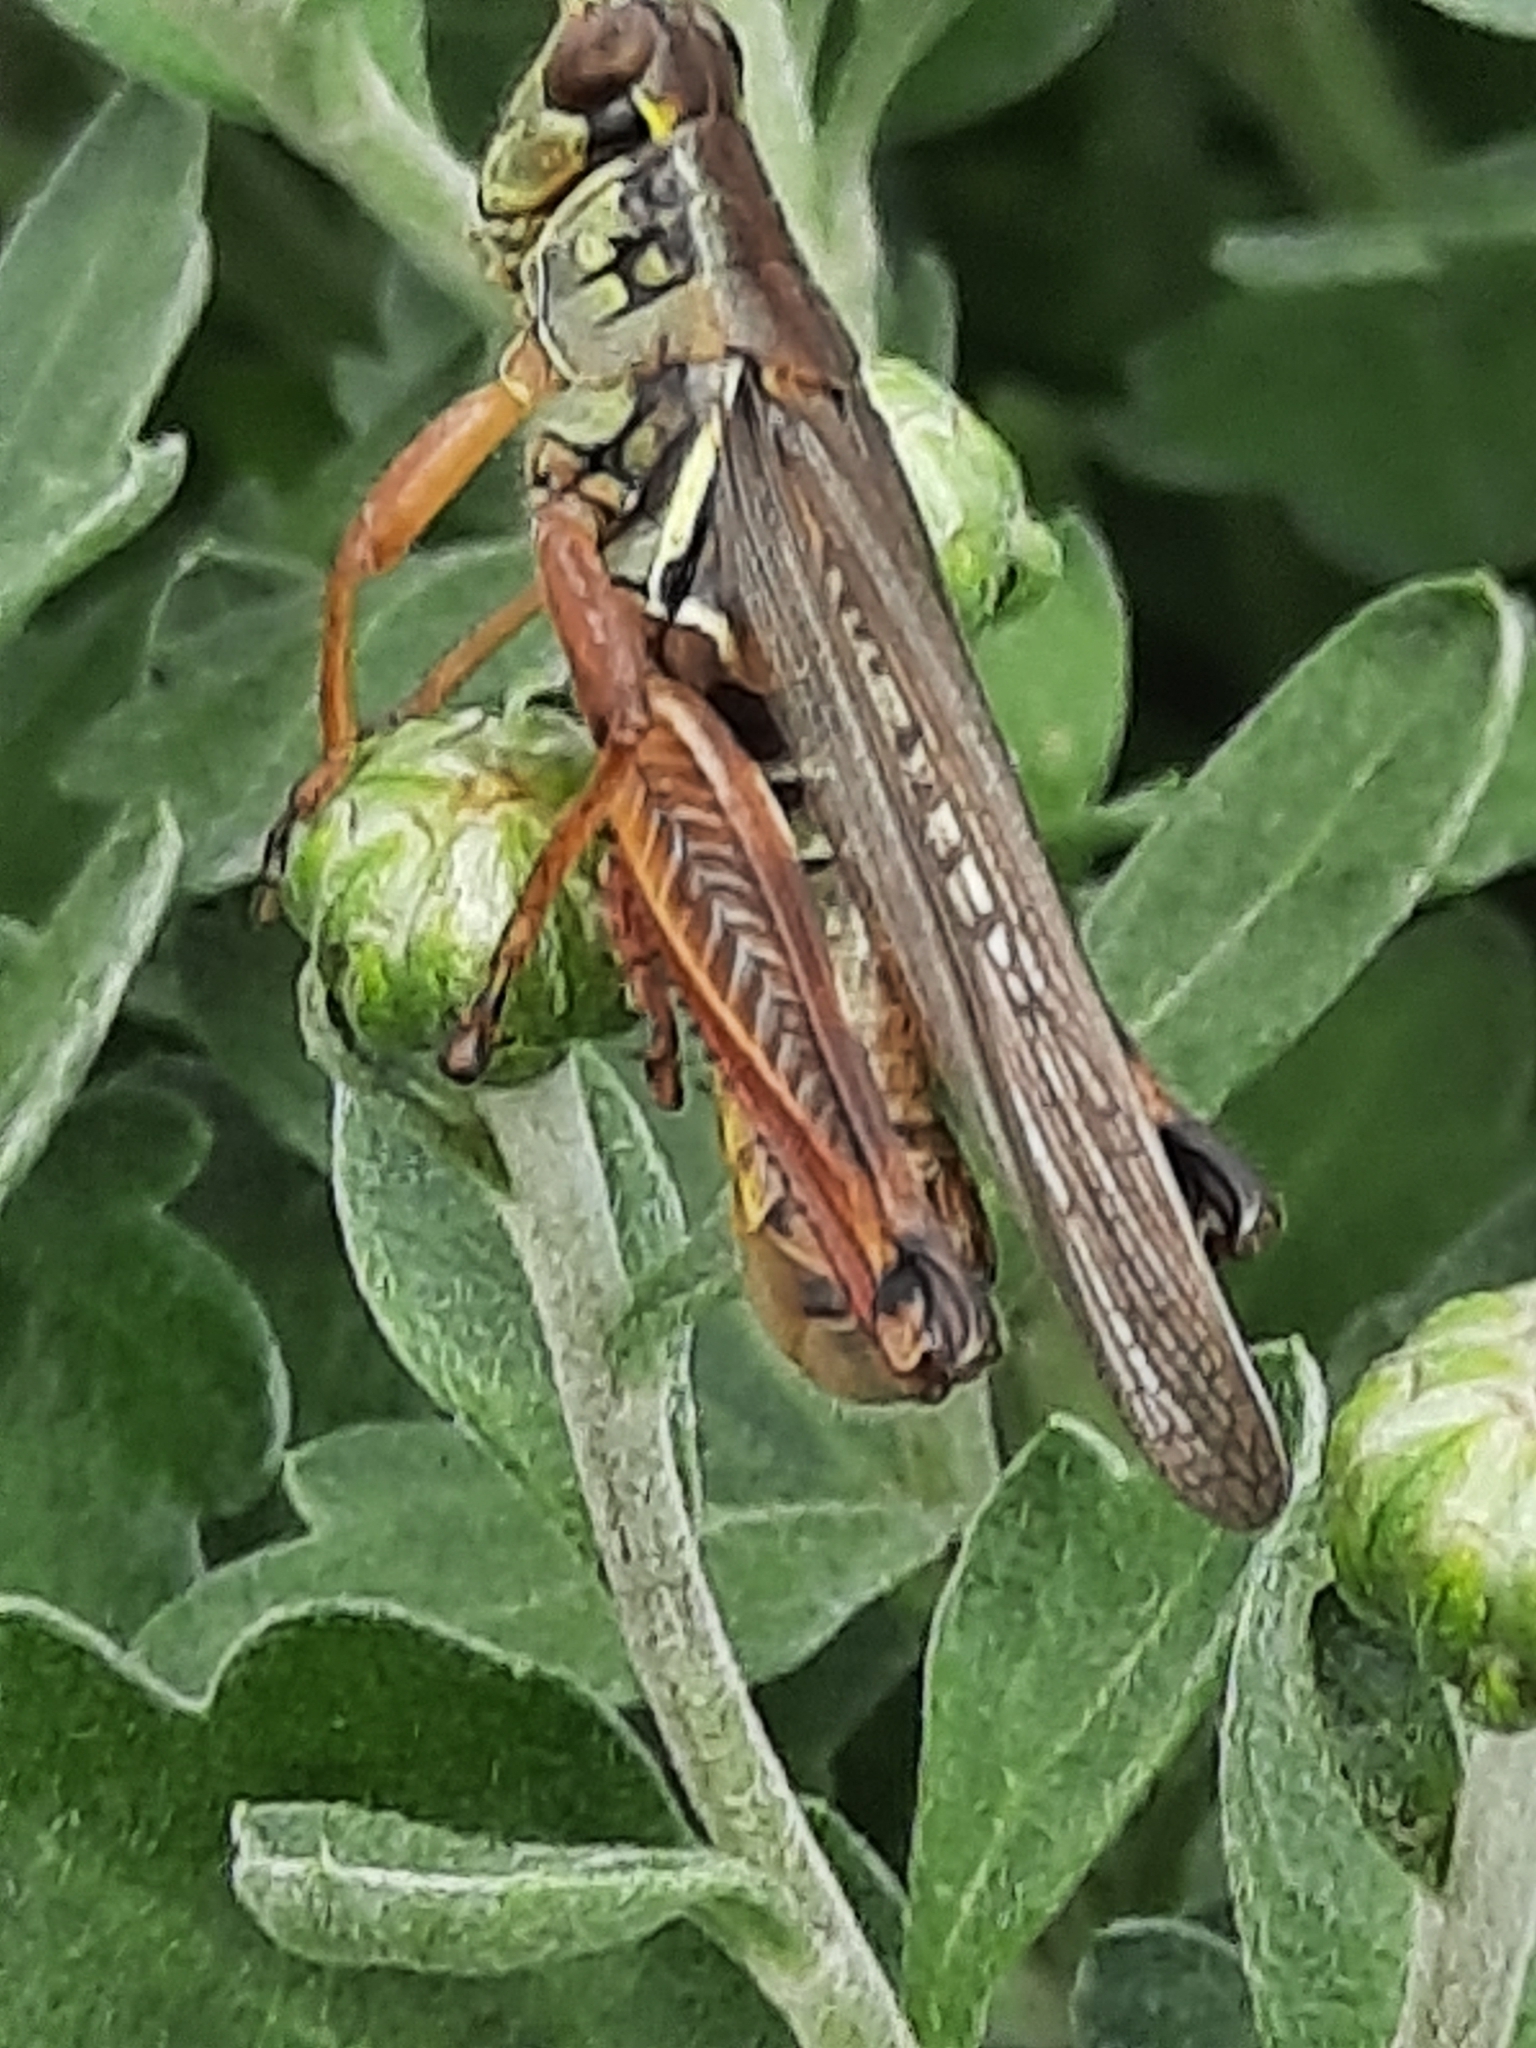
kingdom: Animalia
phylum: Arthropoda
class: Insecta
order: Orthoptera
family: Acrididae
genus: Melanoplus
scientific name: Melanoplus femurrubrum
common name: Red-legged grasshopper
